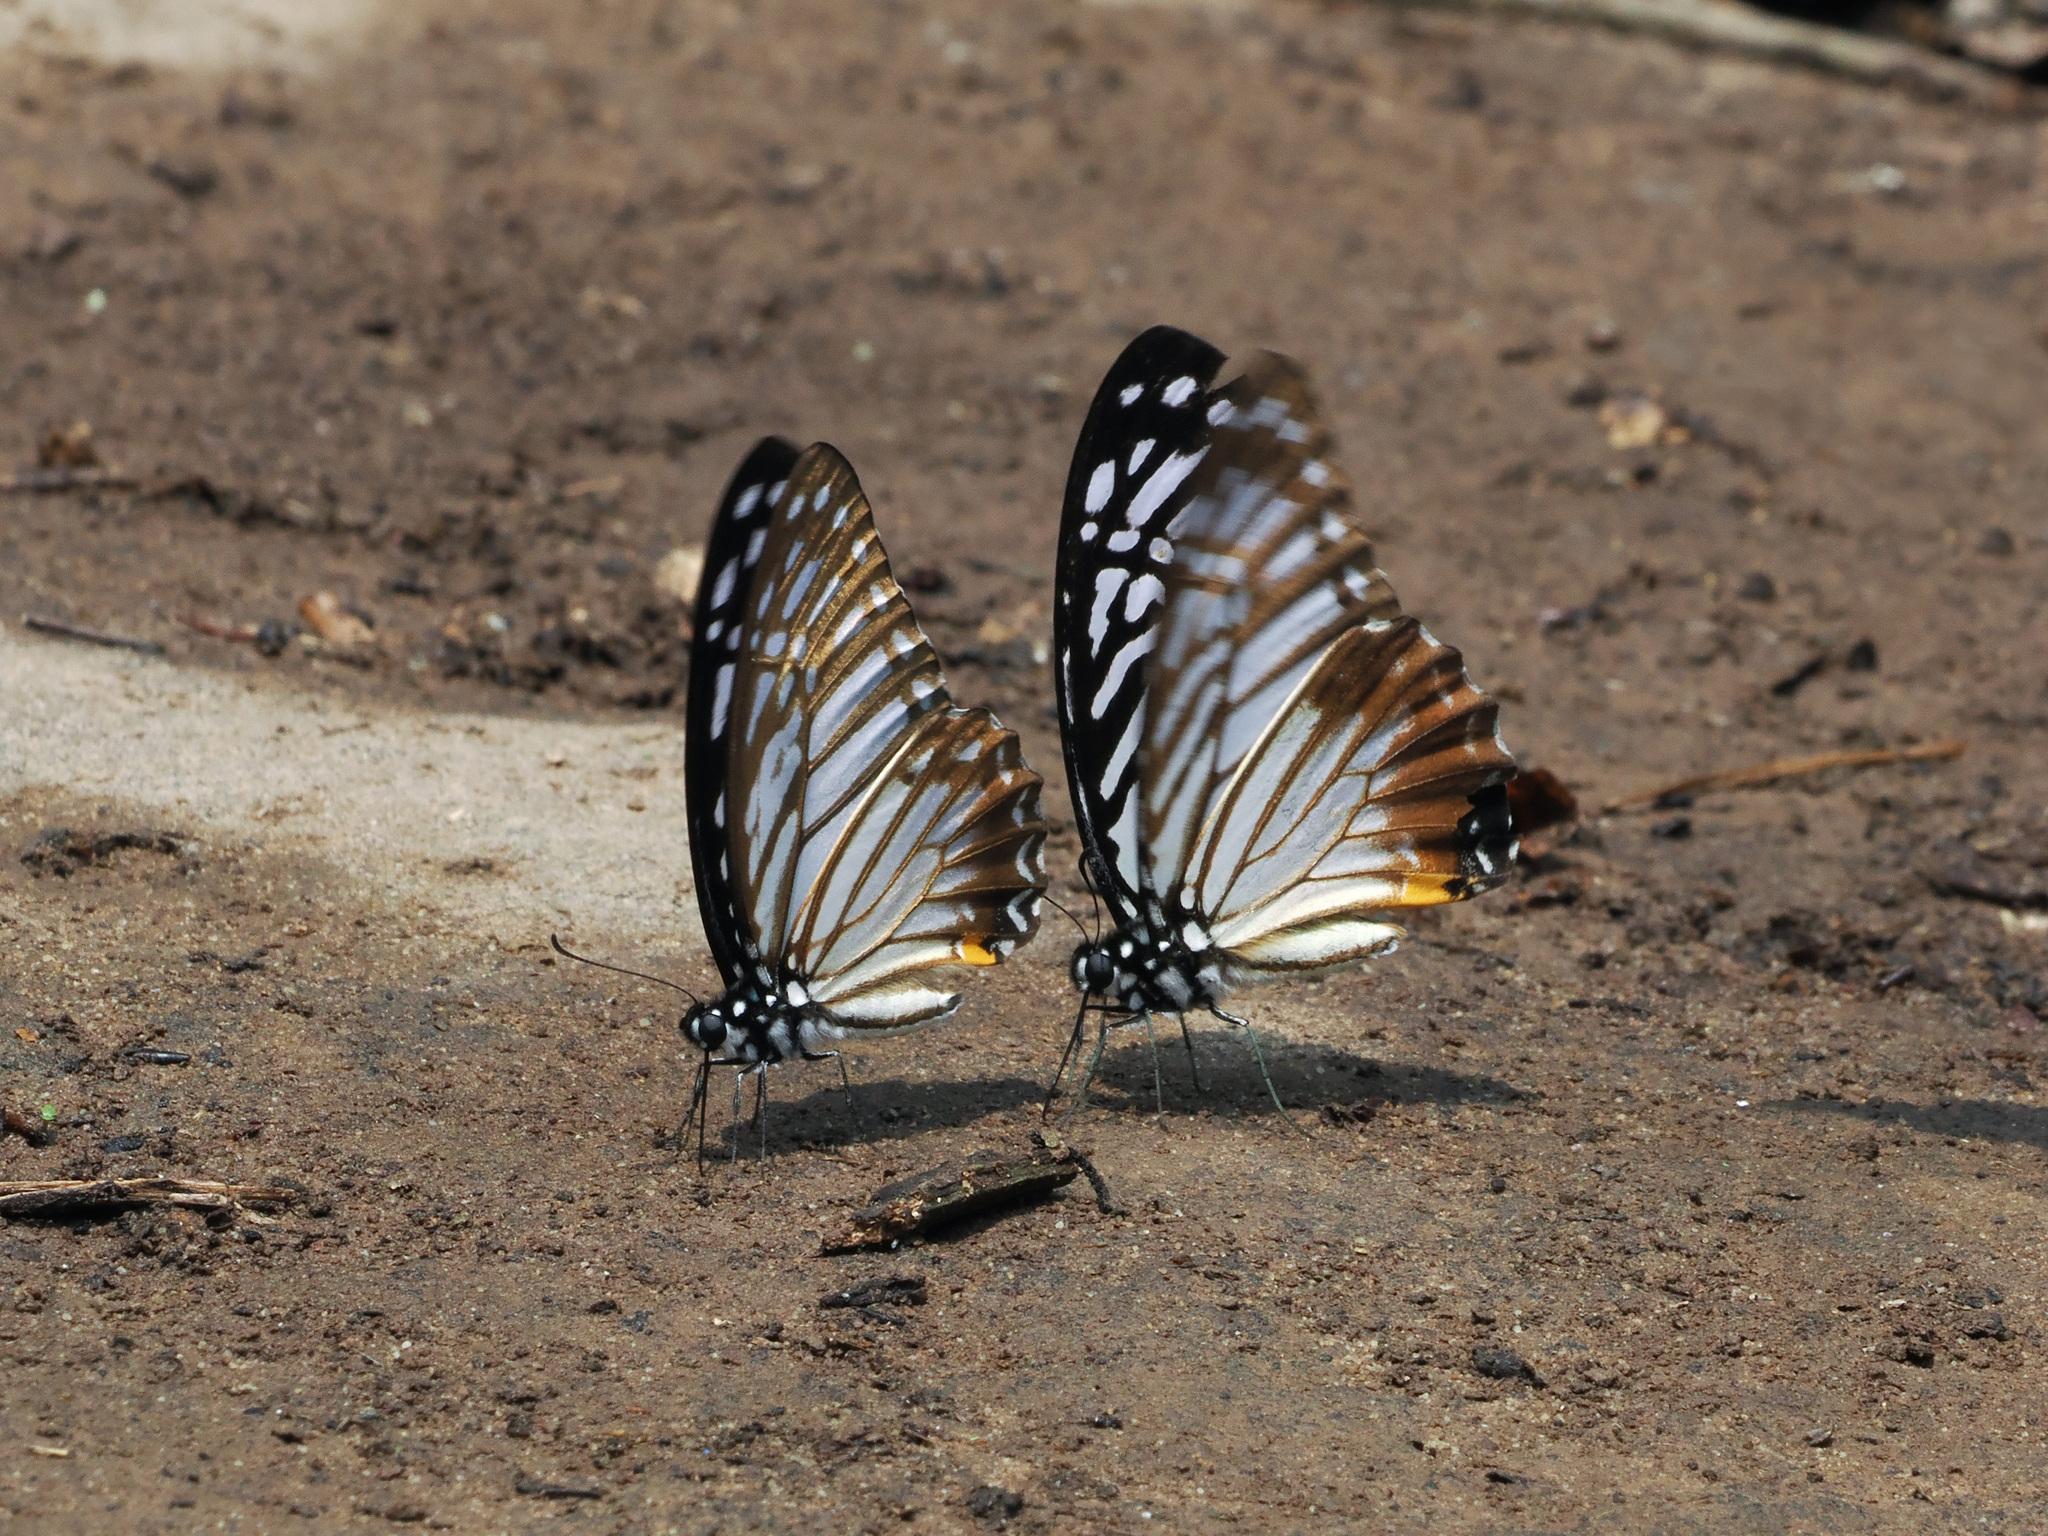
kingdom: Animalia
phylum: Arthropoda
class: Insecta
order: Lepidoptera
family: Papilionidae
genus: Graphium
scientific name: Graphium xenocles
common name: Great zebra
